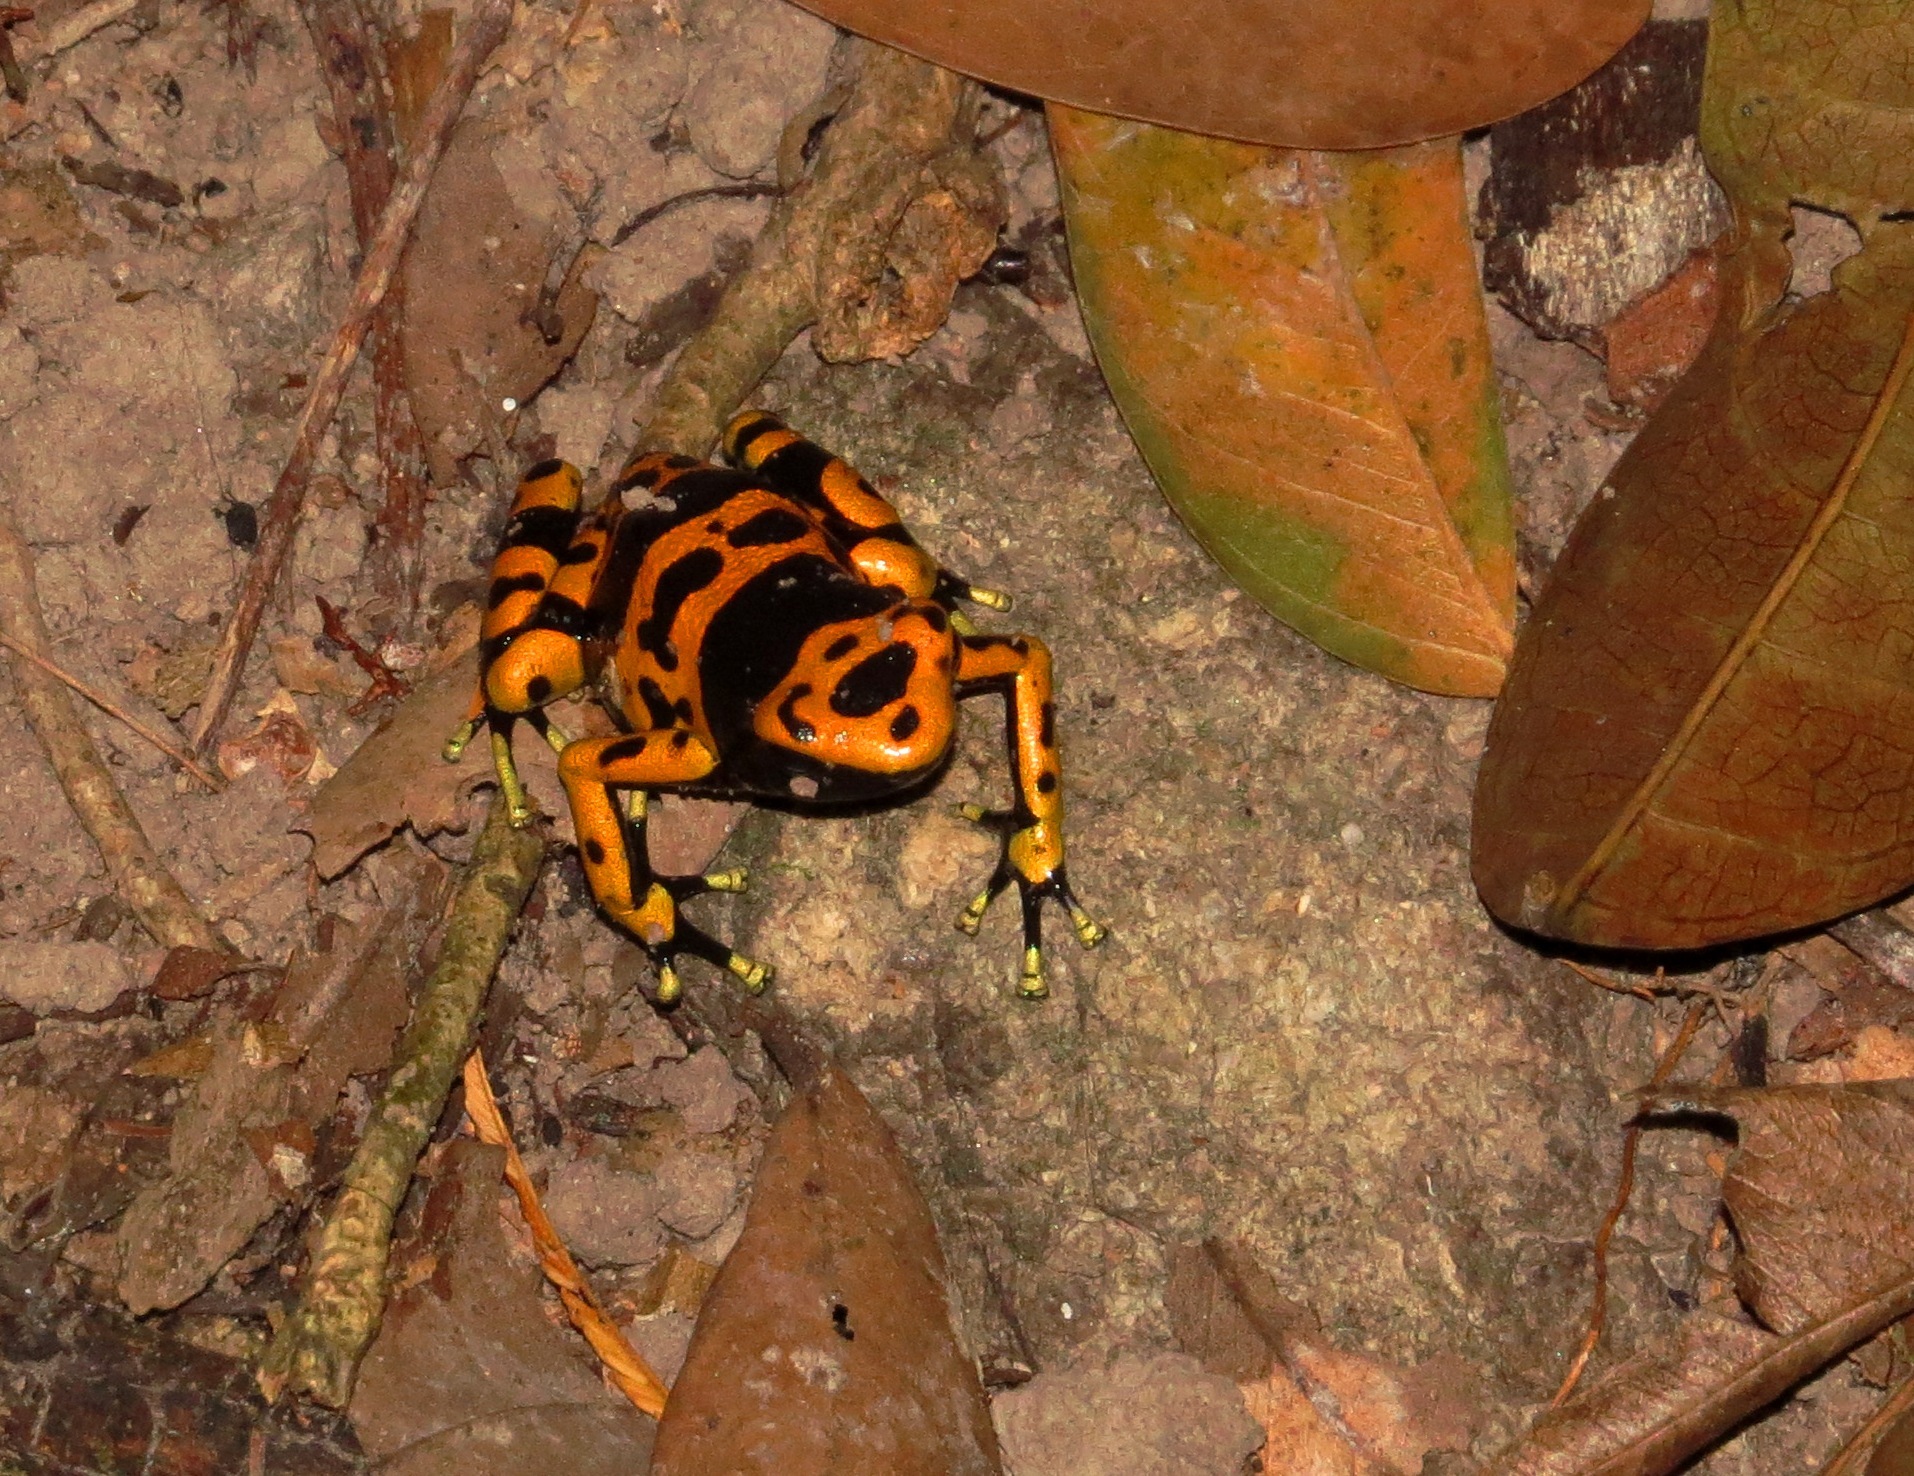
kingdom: Animalia
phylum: Chordata
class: Amphibia
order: Anura
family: Dendrobatidae
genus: Dendrobates
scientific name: Dendrobates leucomelas
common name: Yellow-banded poison frog
